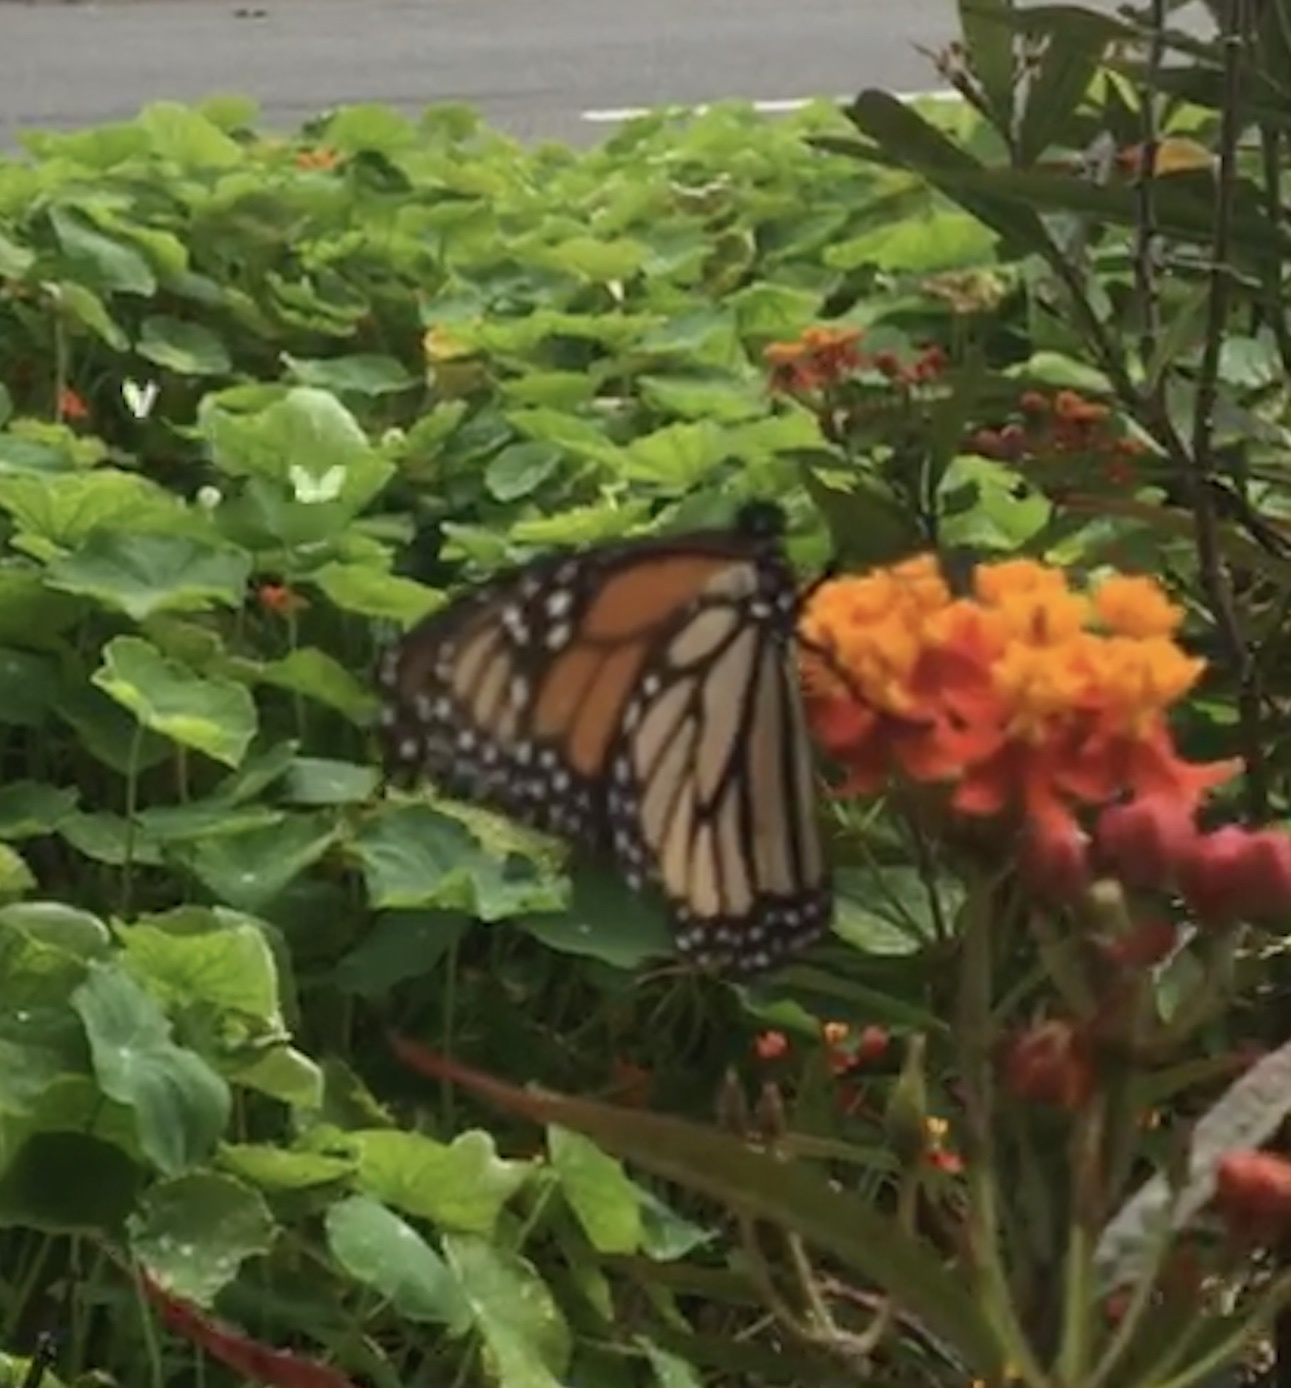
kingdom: Animalia
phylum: Arthropoda
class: Insecta
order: Lepidoptera
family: Pieridae
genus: Pieris
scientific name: Pieris rapae
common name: Small white
